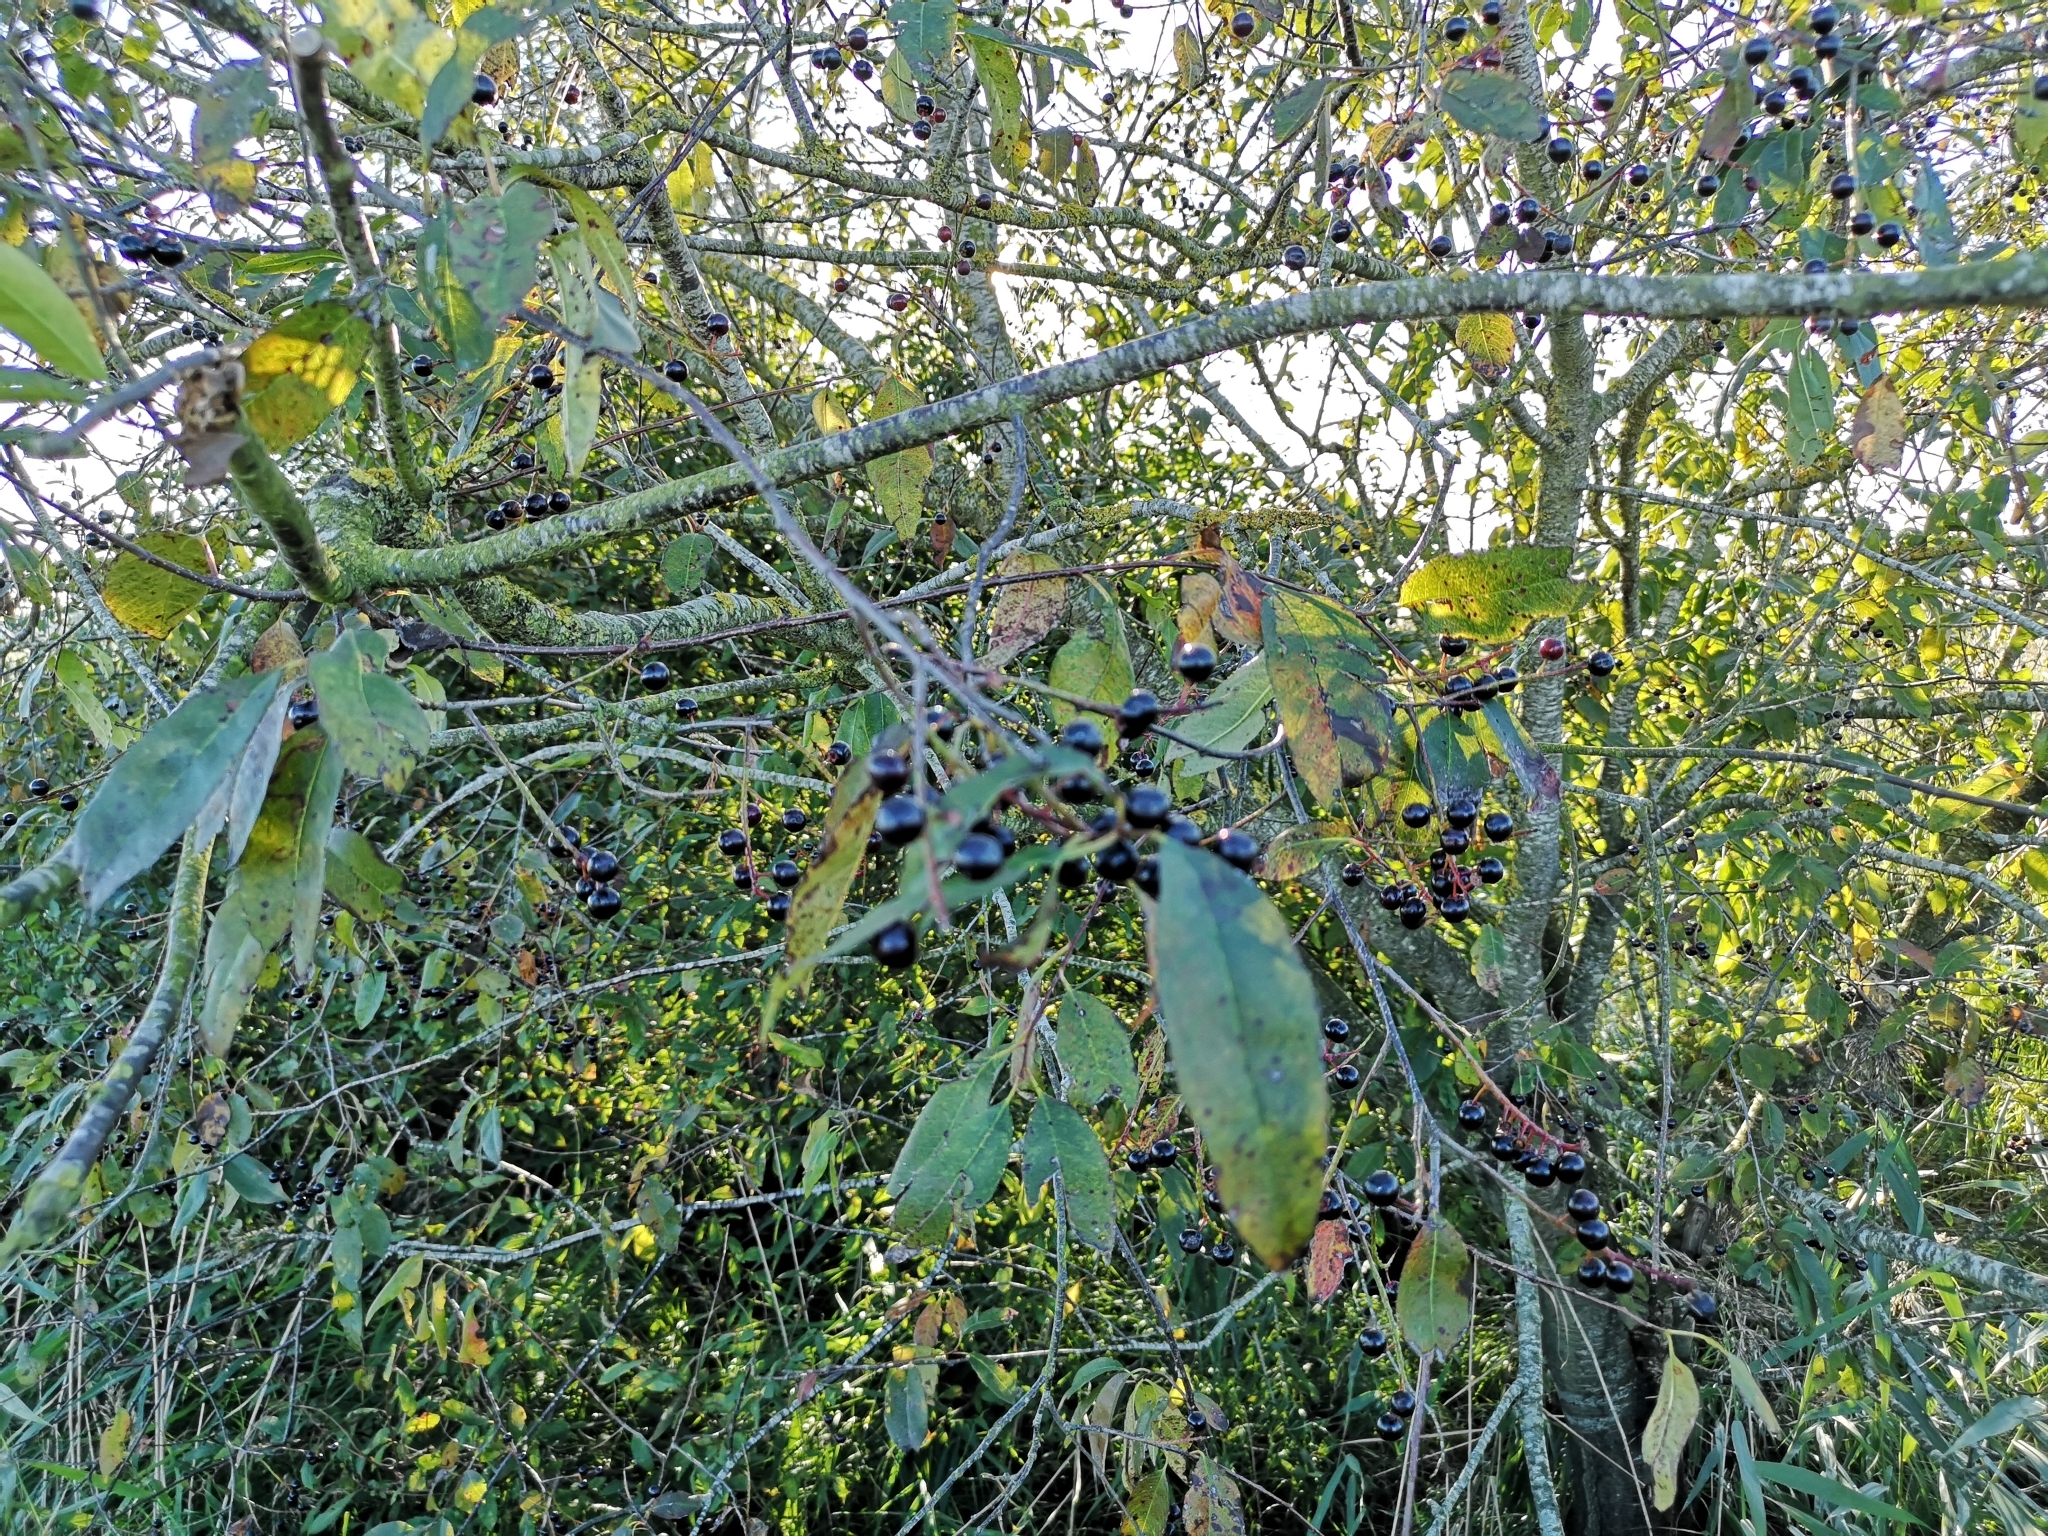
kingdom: Plantae
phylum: Tracheophyta
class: Magnoliopsida
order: Rosales
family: Rosaceae
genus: Prunus
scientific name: Prunus serotina
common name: Black cherry
